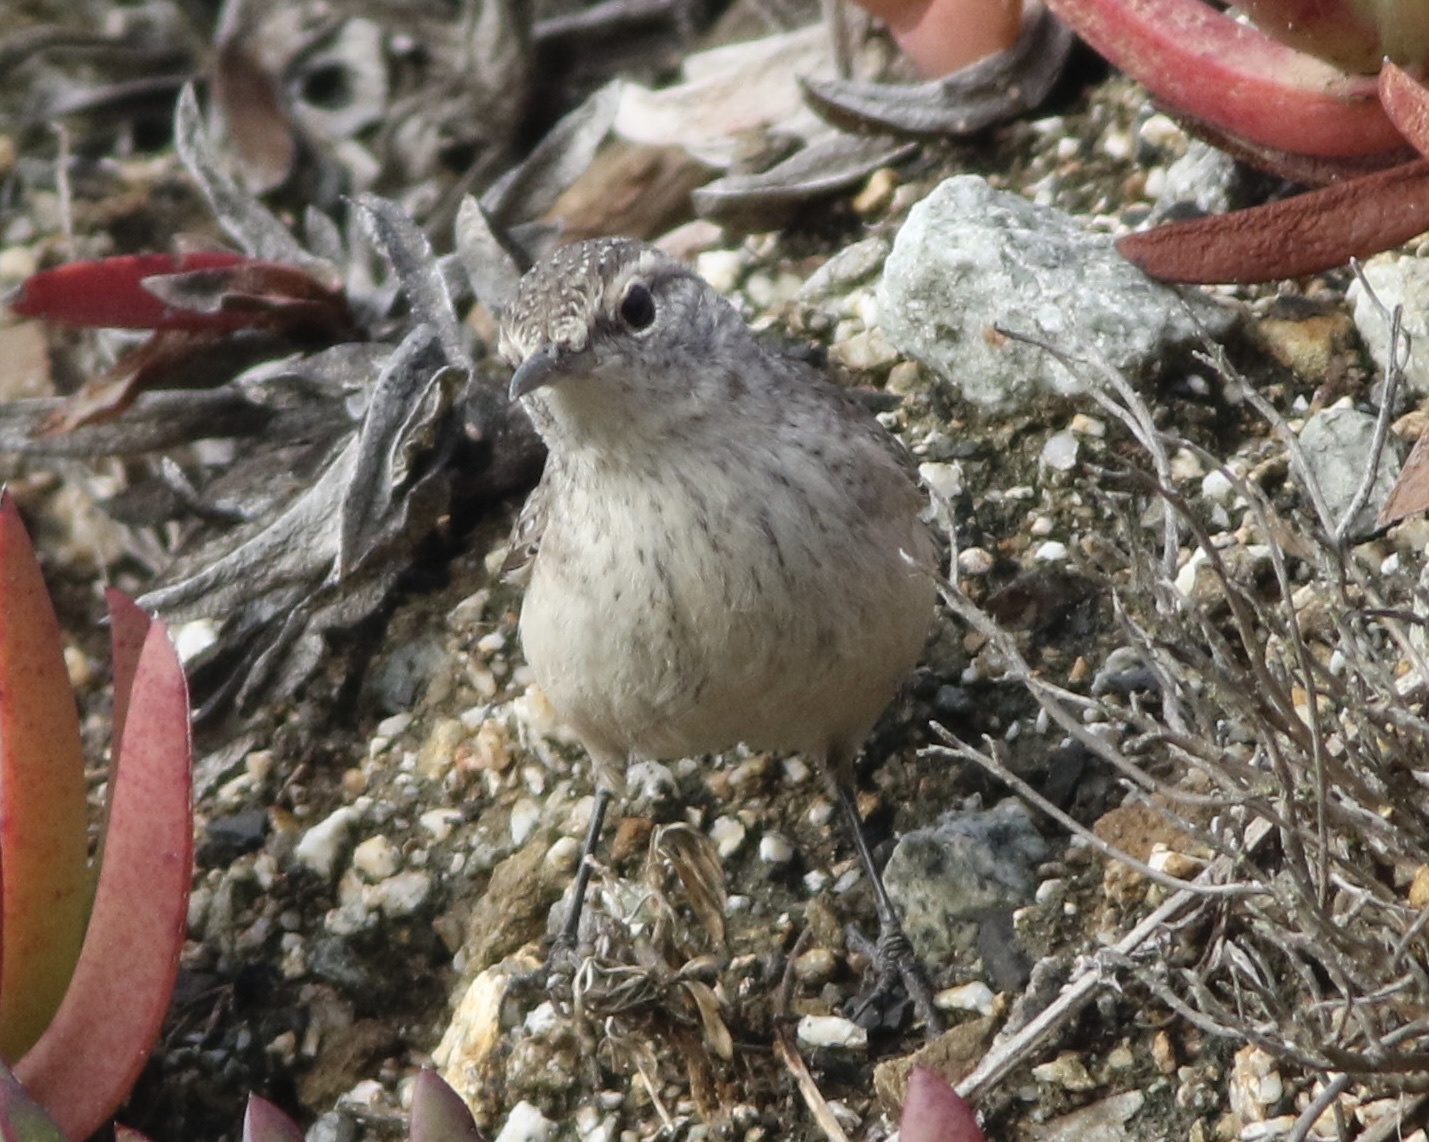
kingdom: Animalia
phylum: Chordata
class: Aves
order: Passeriformes
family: Troglodytidae
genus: Salpinctes
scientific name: Salpinctes obsoletus
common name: Rock wren
